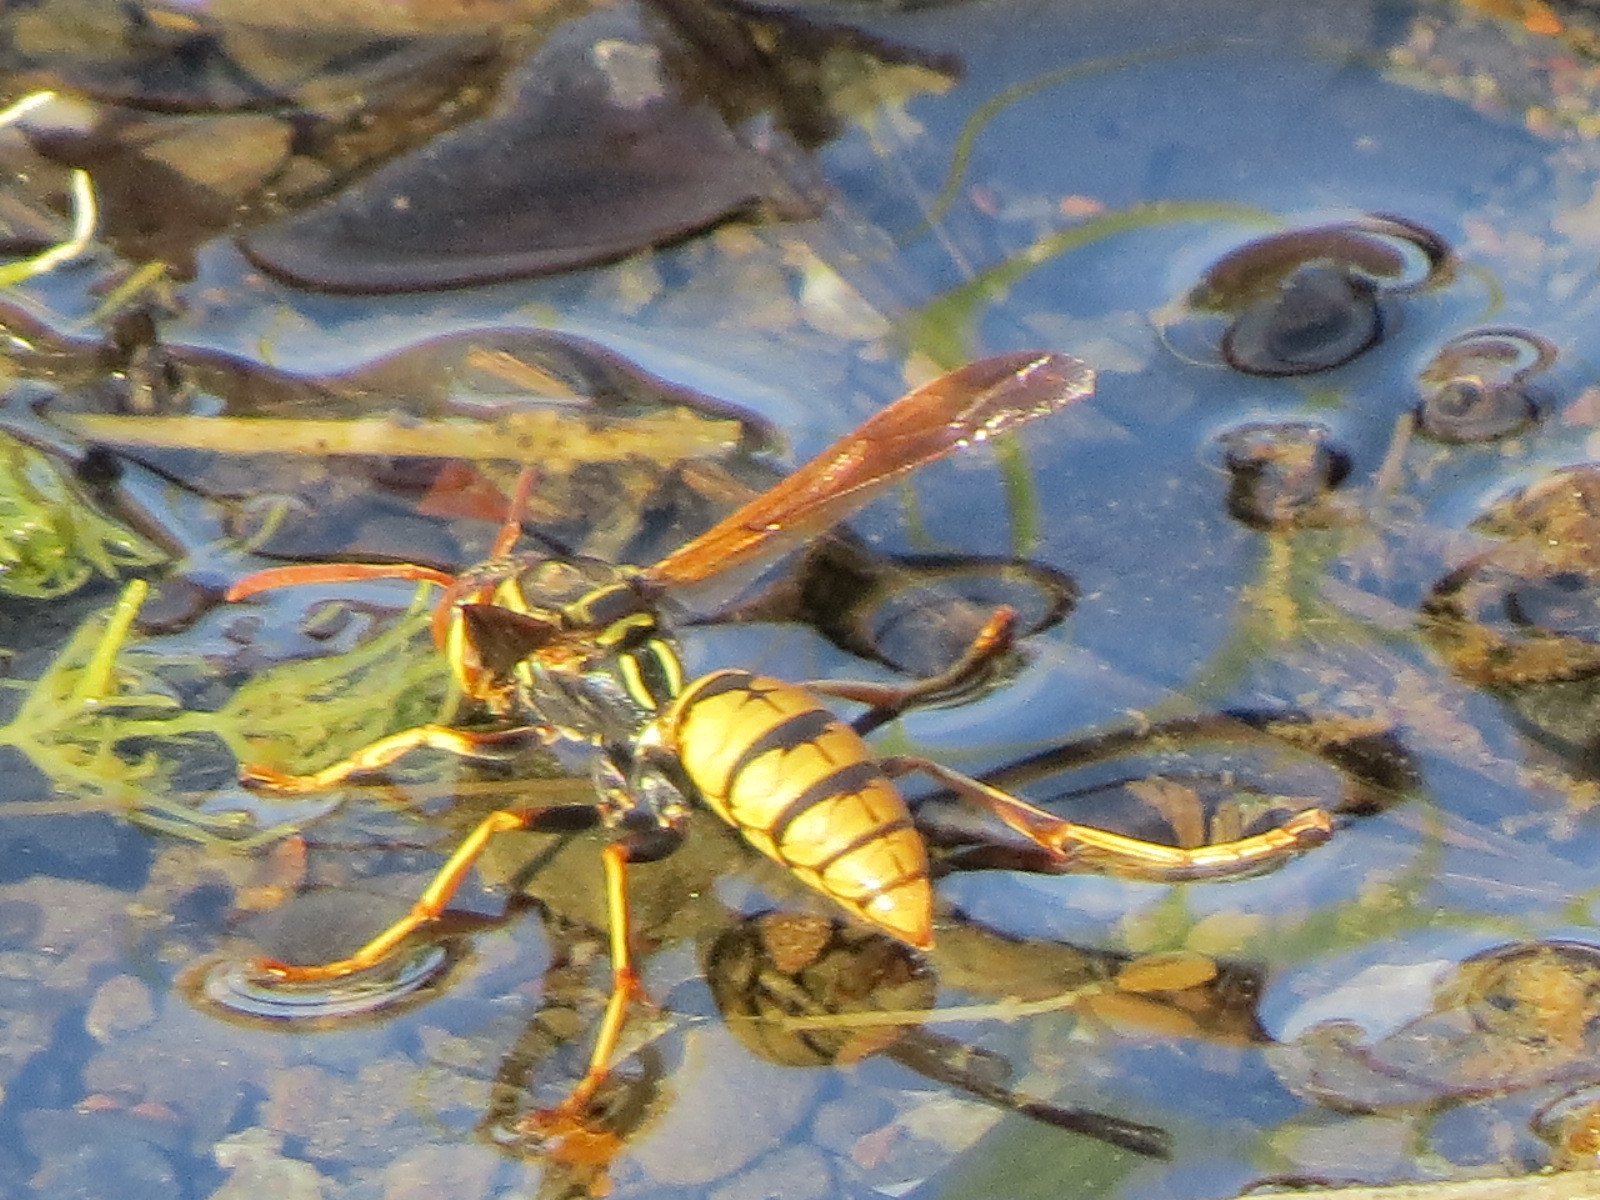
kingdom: Animalia
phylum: Arthropoda
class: Insecta
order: Hymenoptera
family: Eumenidae
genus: Polistes
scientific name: Polistes aurifer
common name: Paper wasp
